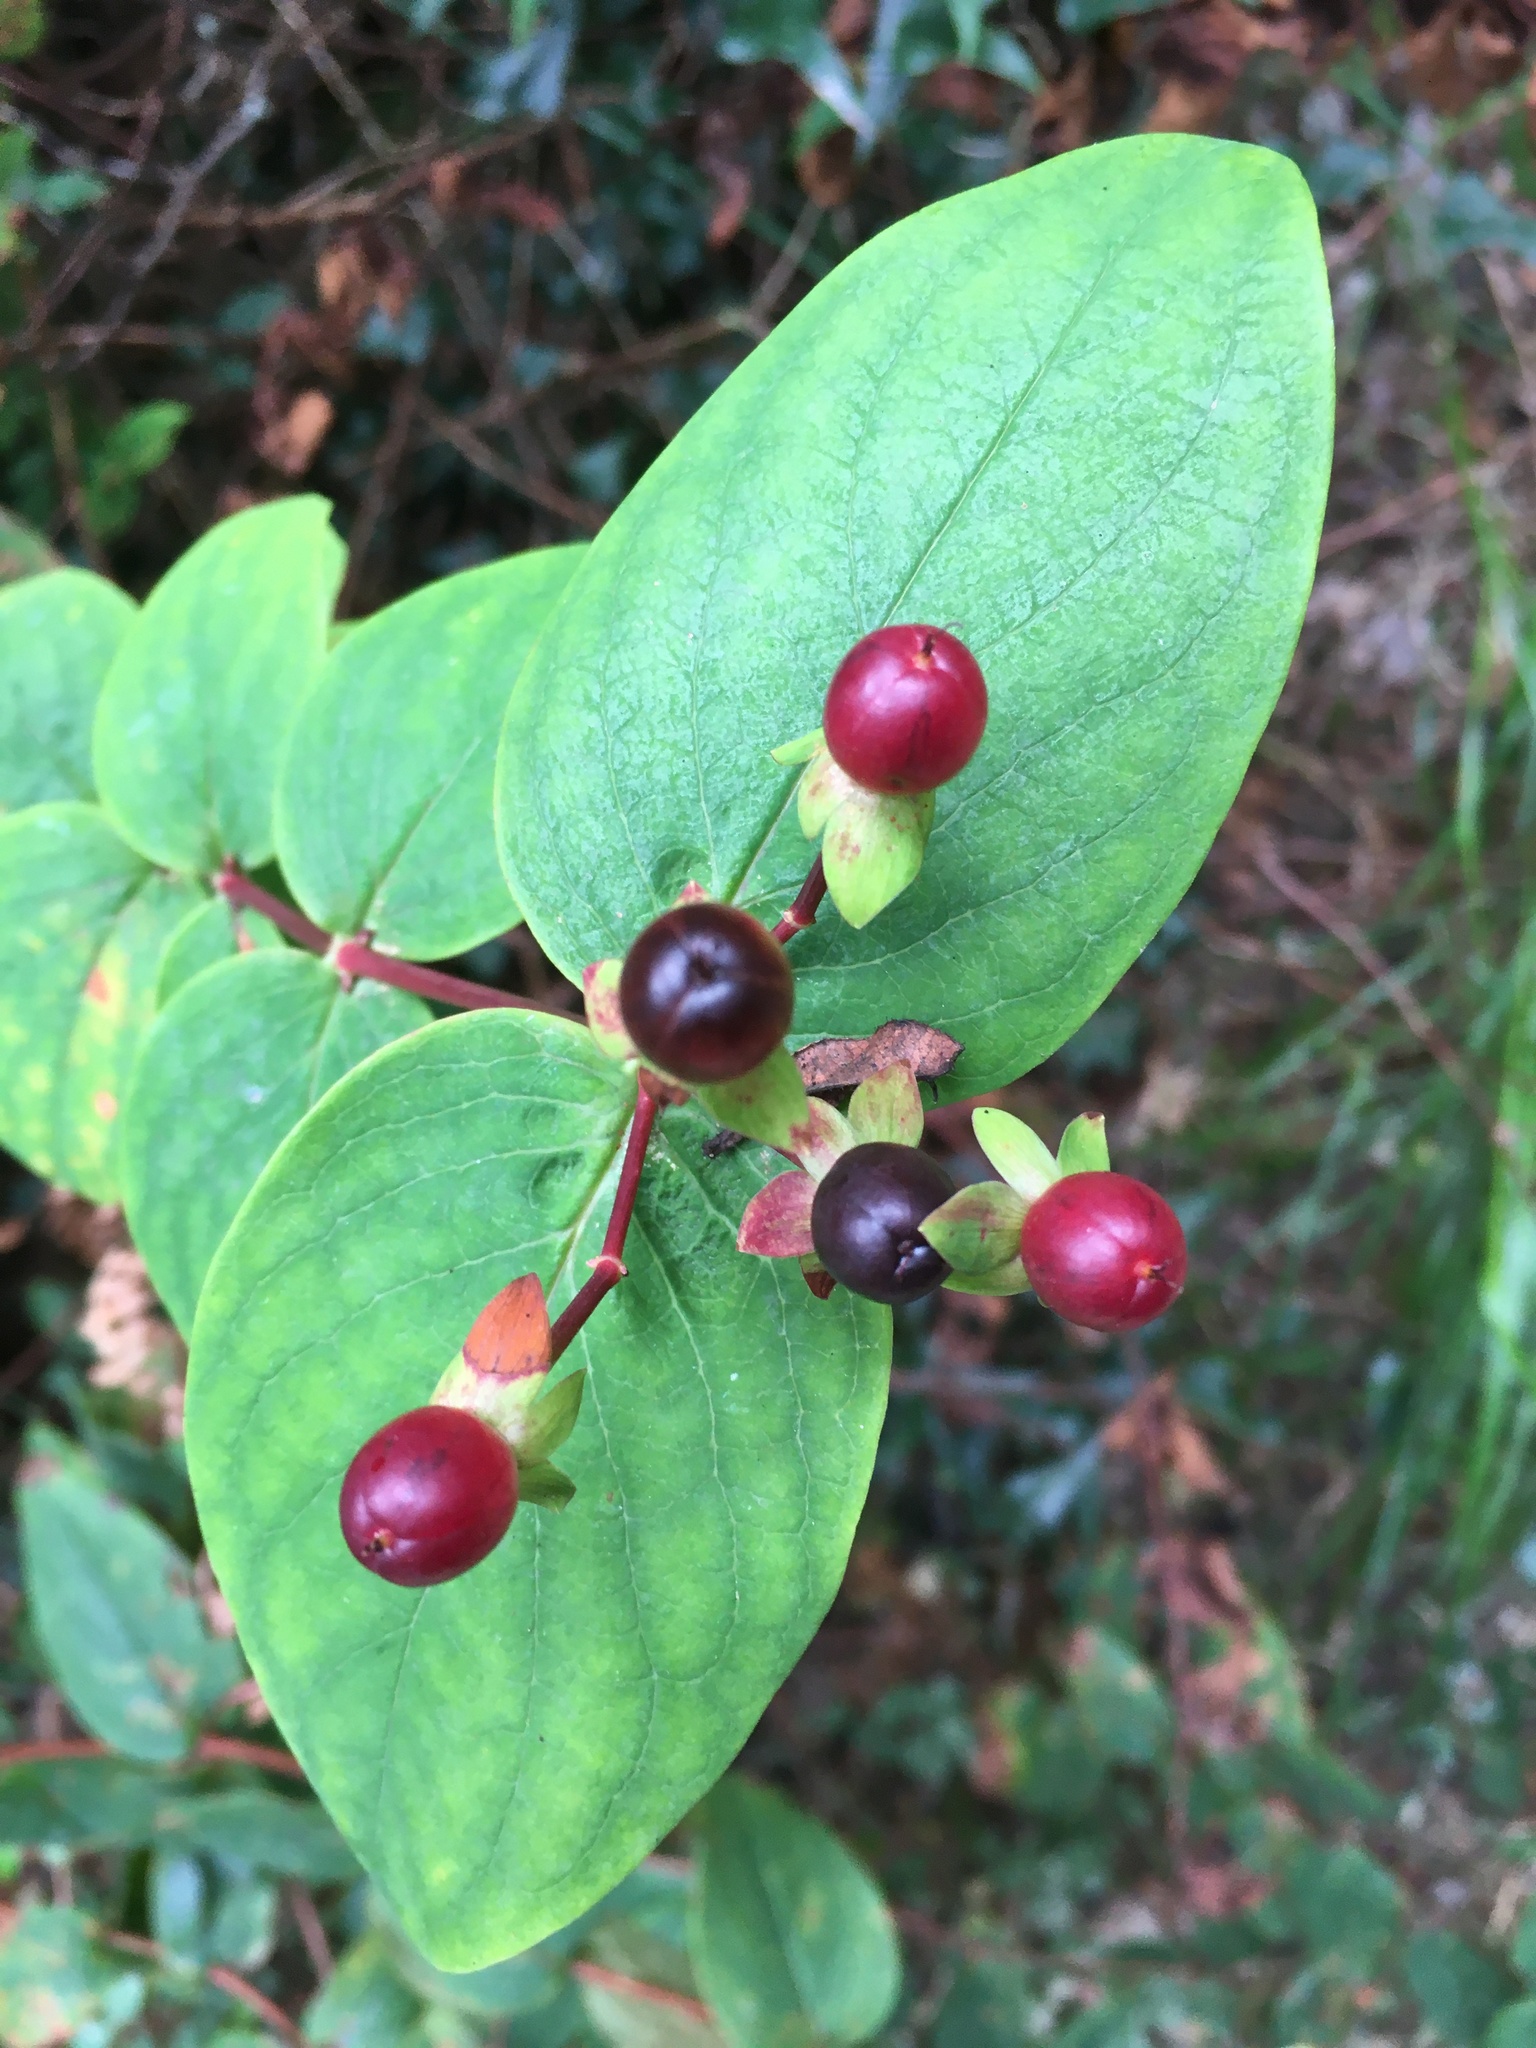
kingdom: Plantae
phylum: Tracheophyta
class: Magnoliopsida
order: Malpighiales
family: Hypericaceae
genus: Hypericum
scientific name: Hypericum androsaemum
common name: Sweet-amber
